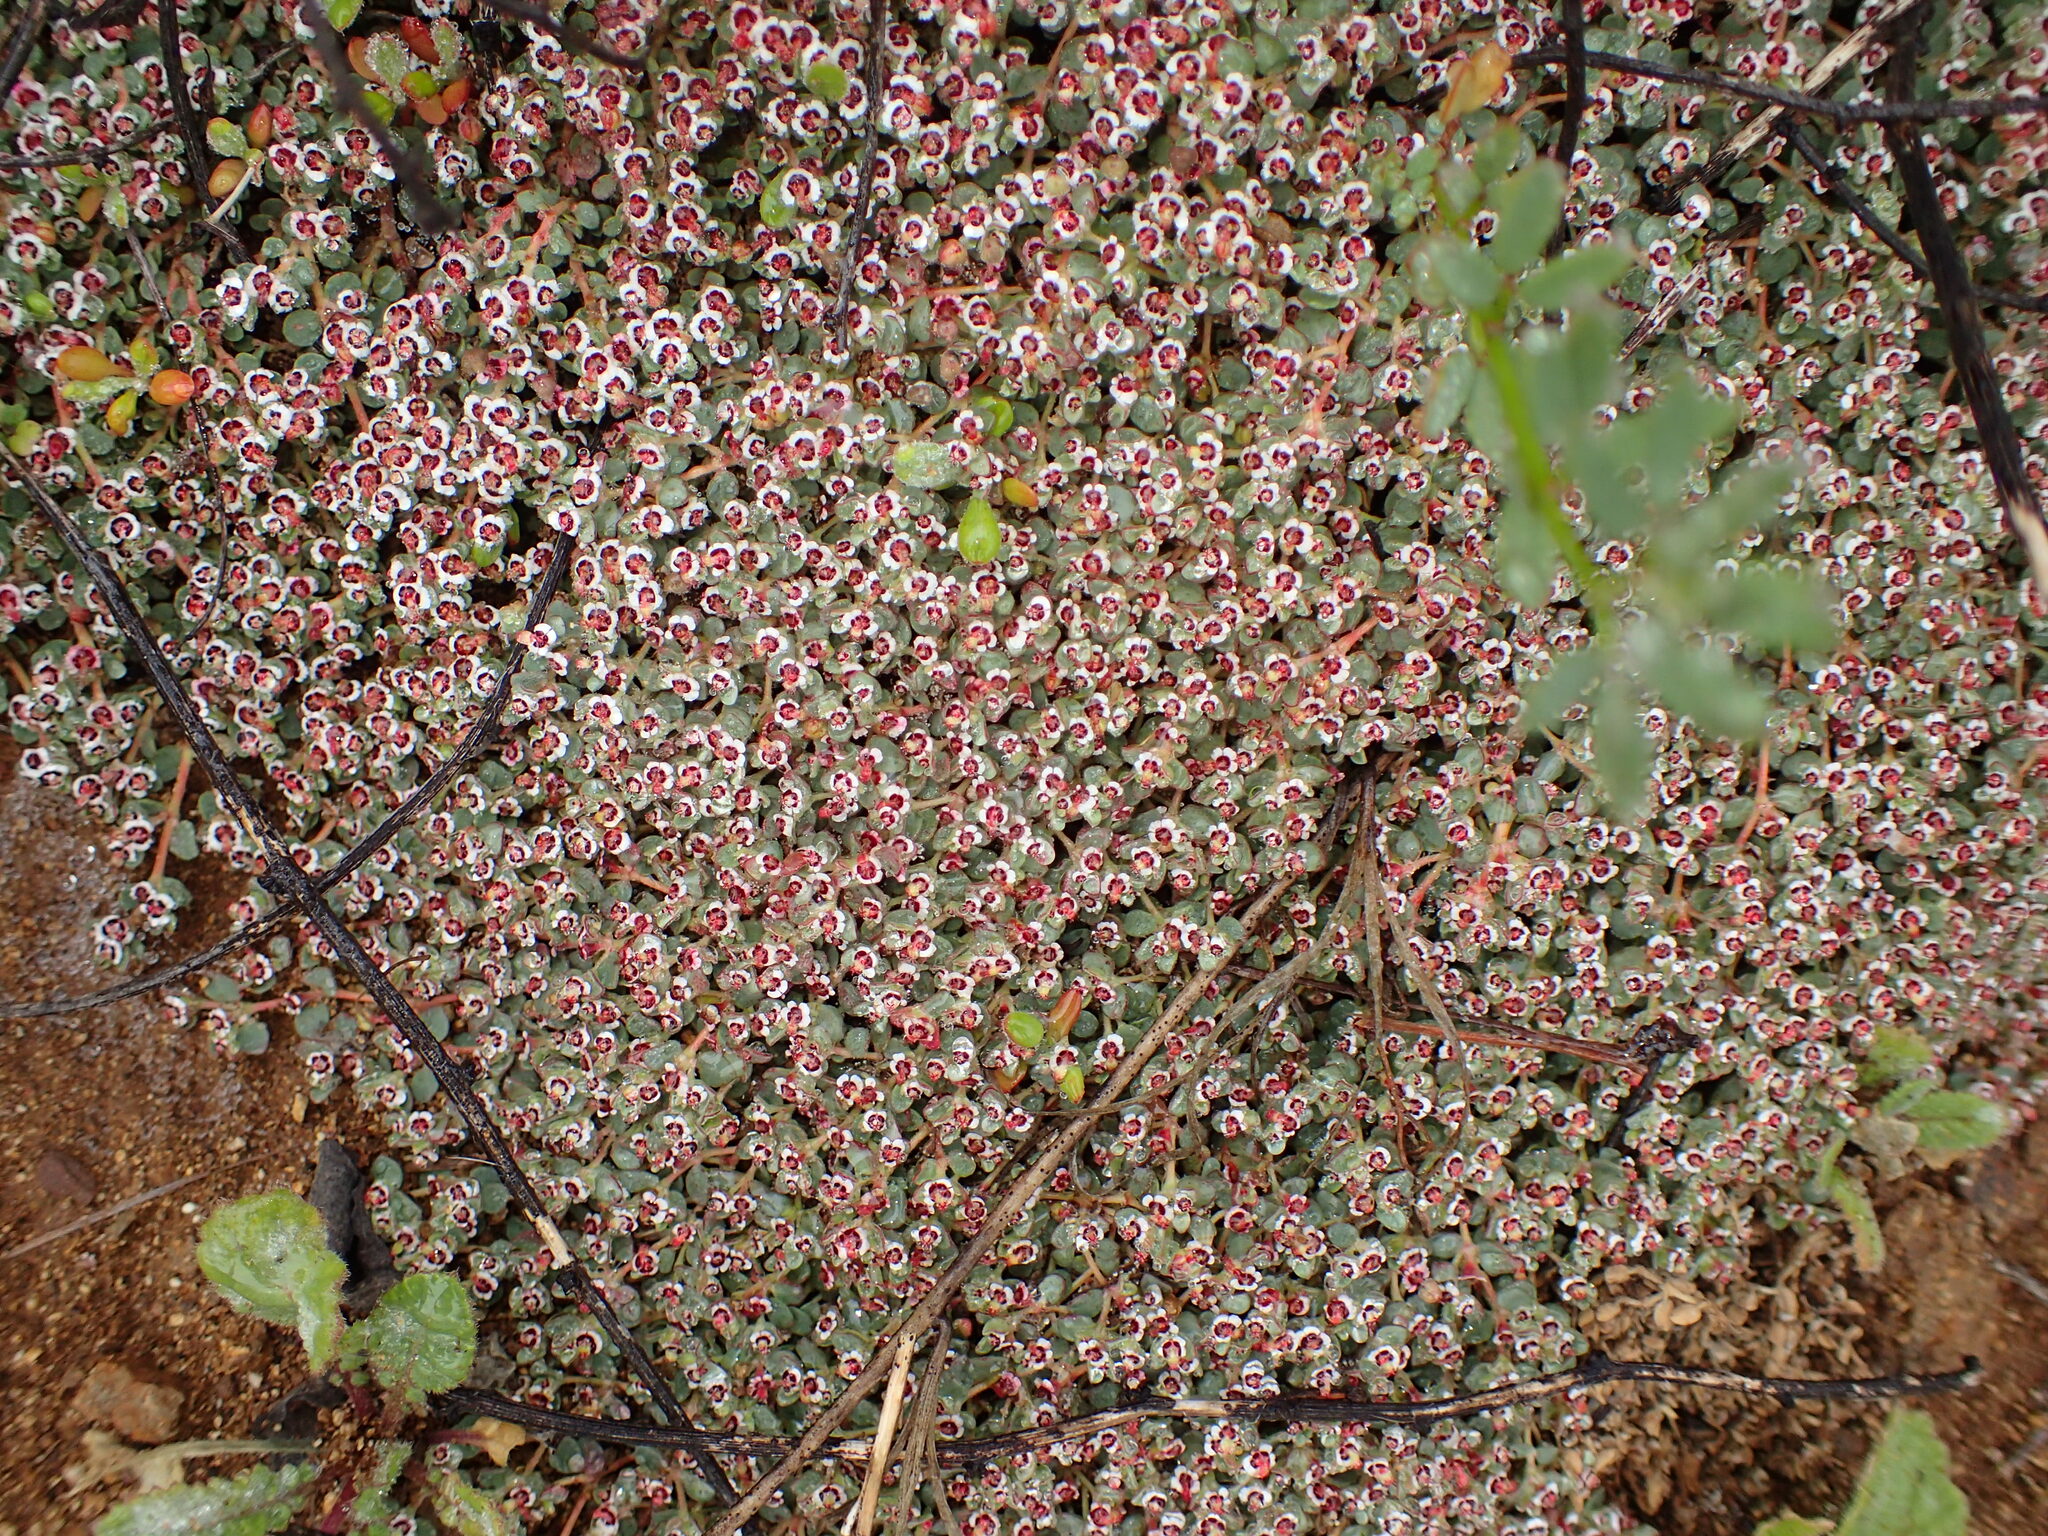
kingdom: Plantae
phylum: Tracheophyta
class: Magnoliopsida
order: Malpighiales
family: Euphorbiaceae
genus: Euphorbia
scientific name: Euphorbia polycarpa
